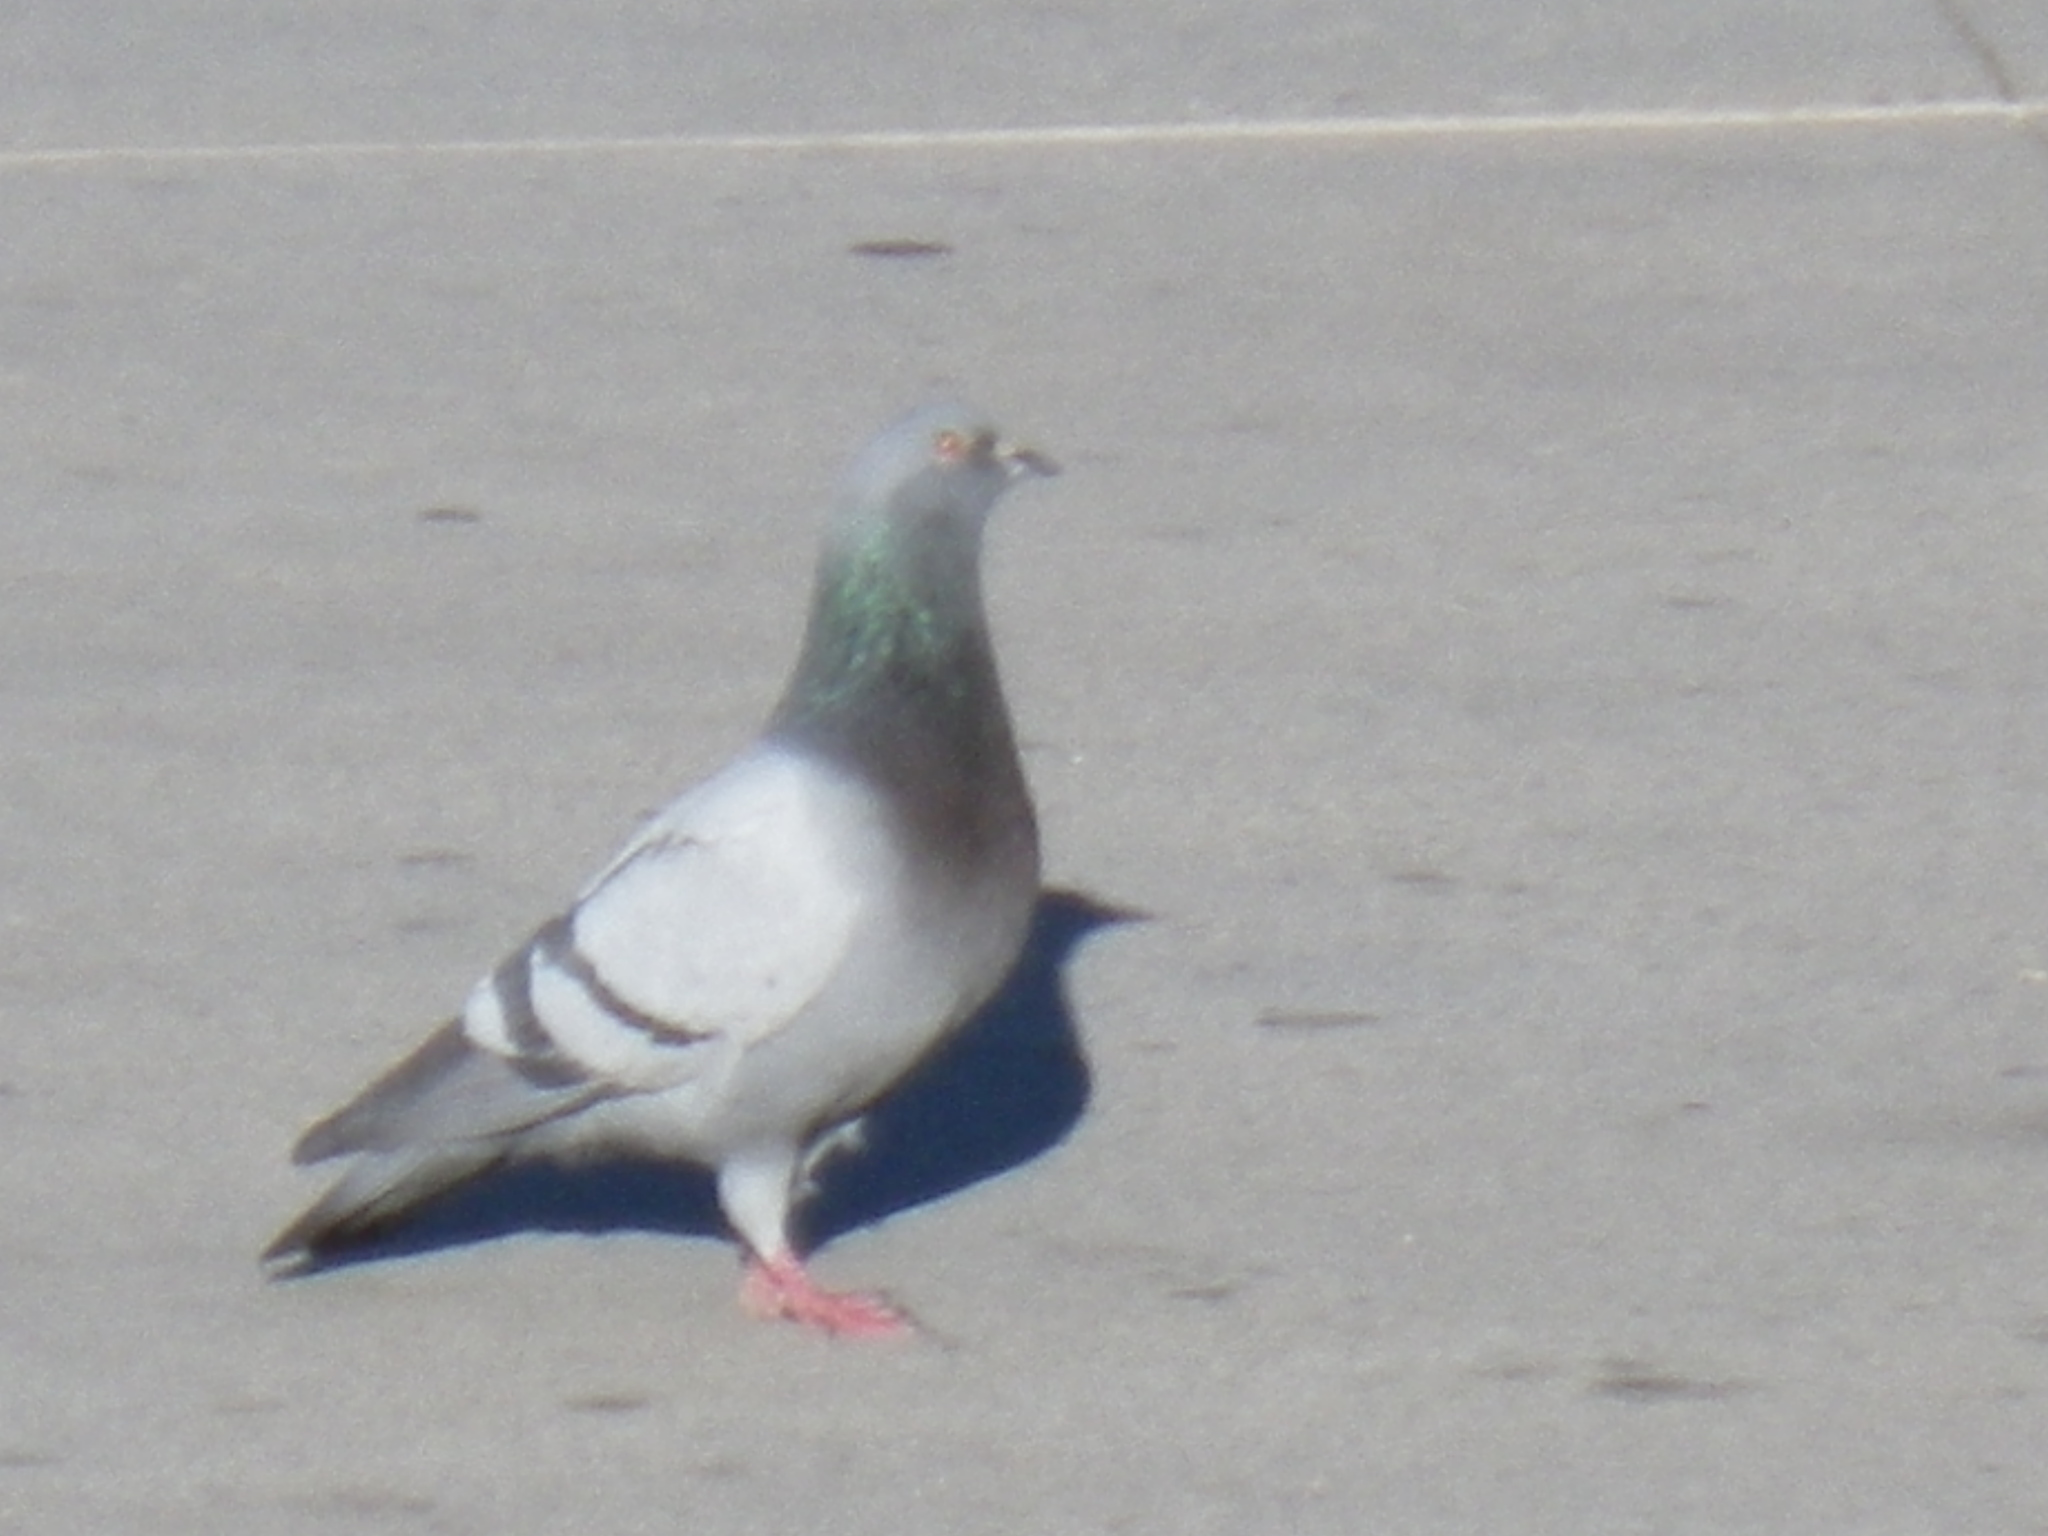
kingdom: Animalia
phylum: Chordata
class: Aves
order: Columbiformes
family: Columbidae
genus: Columba
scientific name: Columba livia
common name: Rock pigeon
